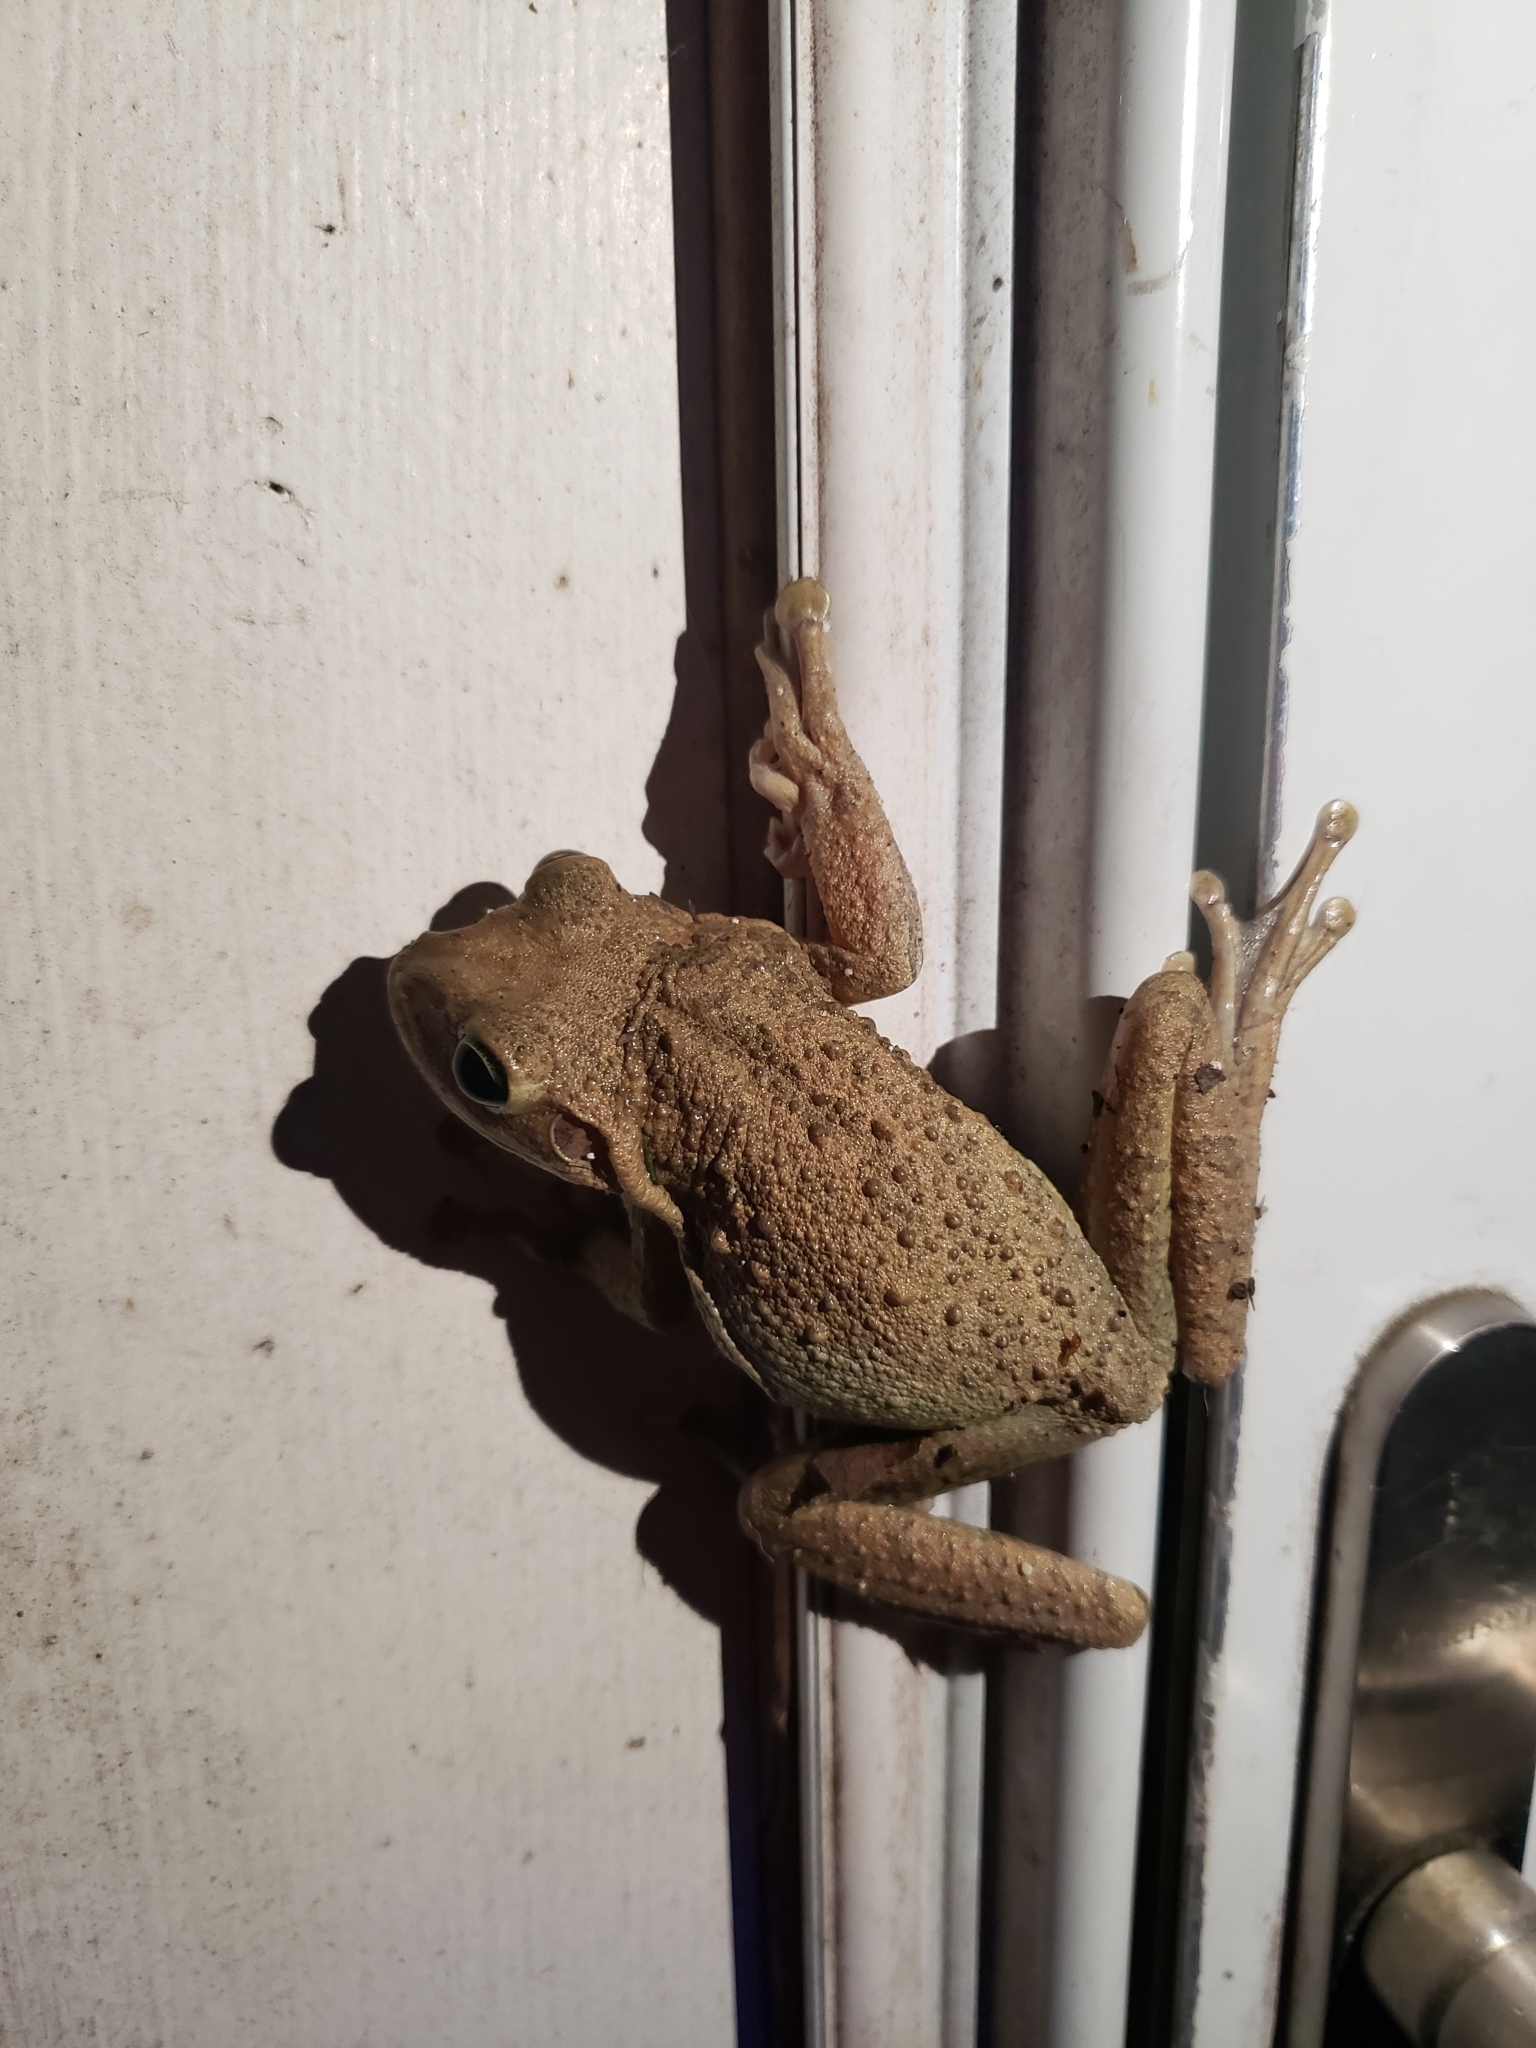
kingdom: Animalia
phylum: Chordata
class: Amphibia
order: Anura
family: Hylidae
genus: Osteopilus
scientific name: Osteopilus septentrionalis
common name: Cuban treefrog
